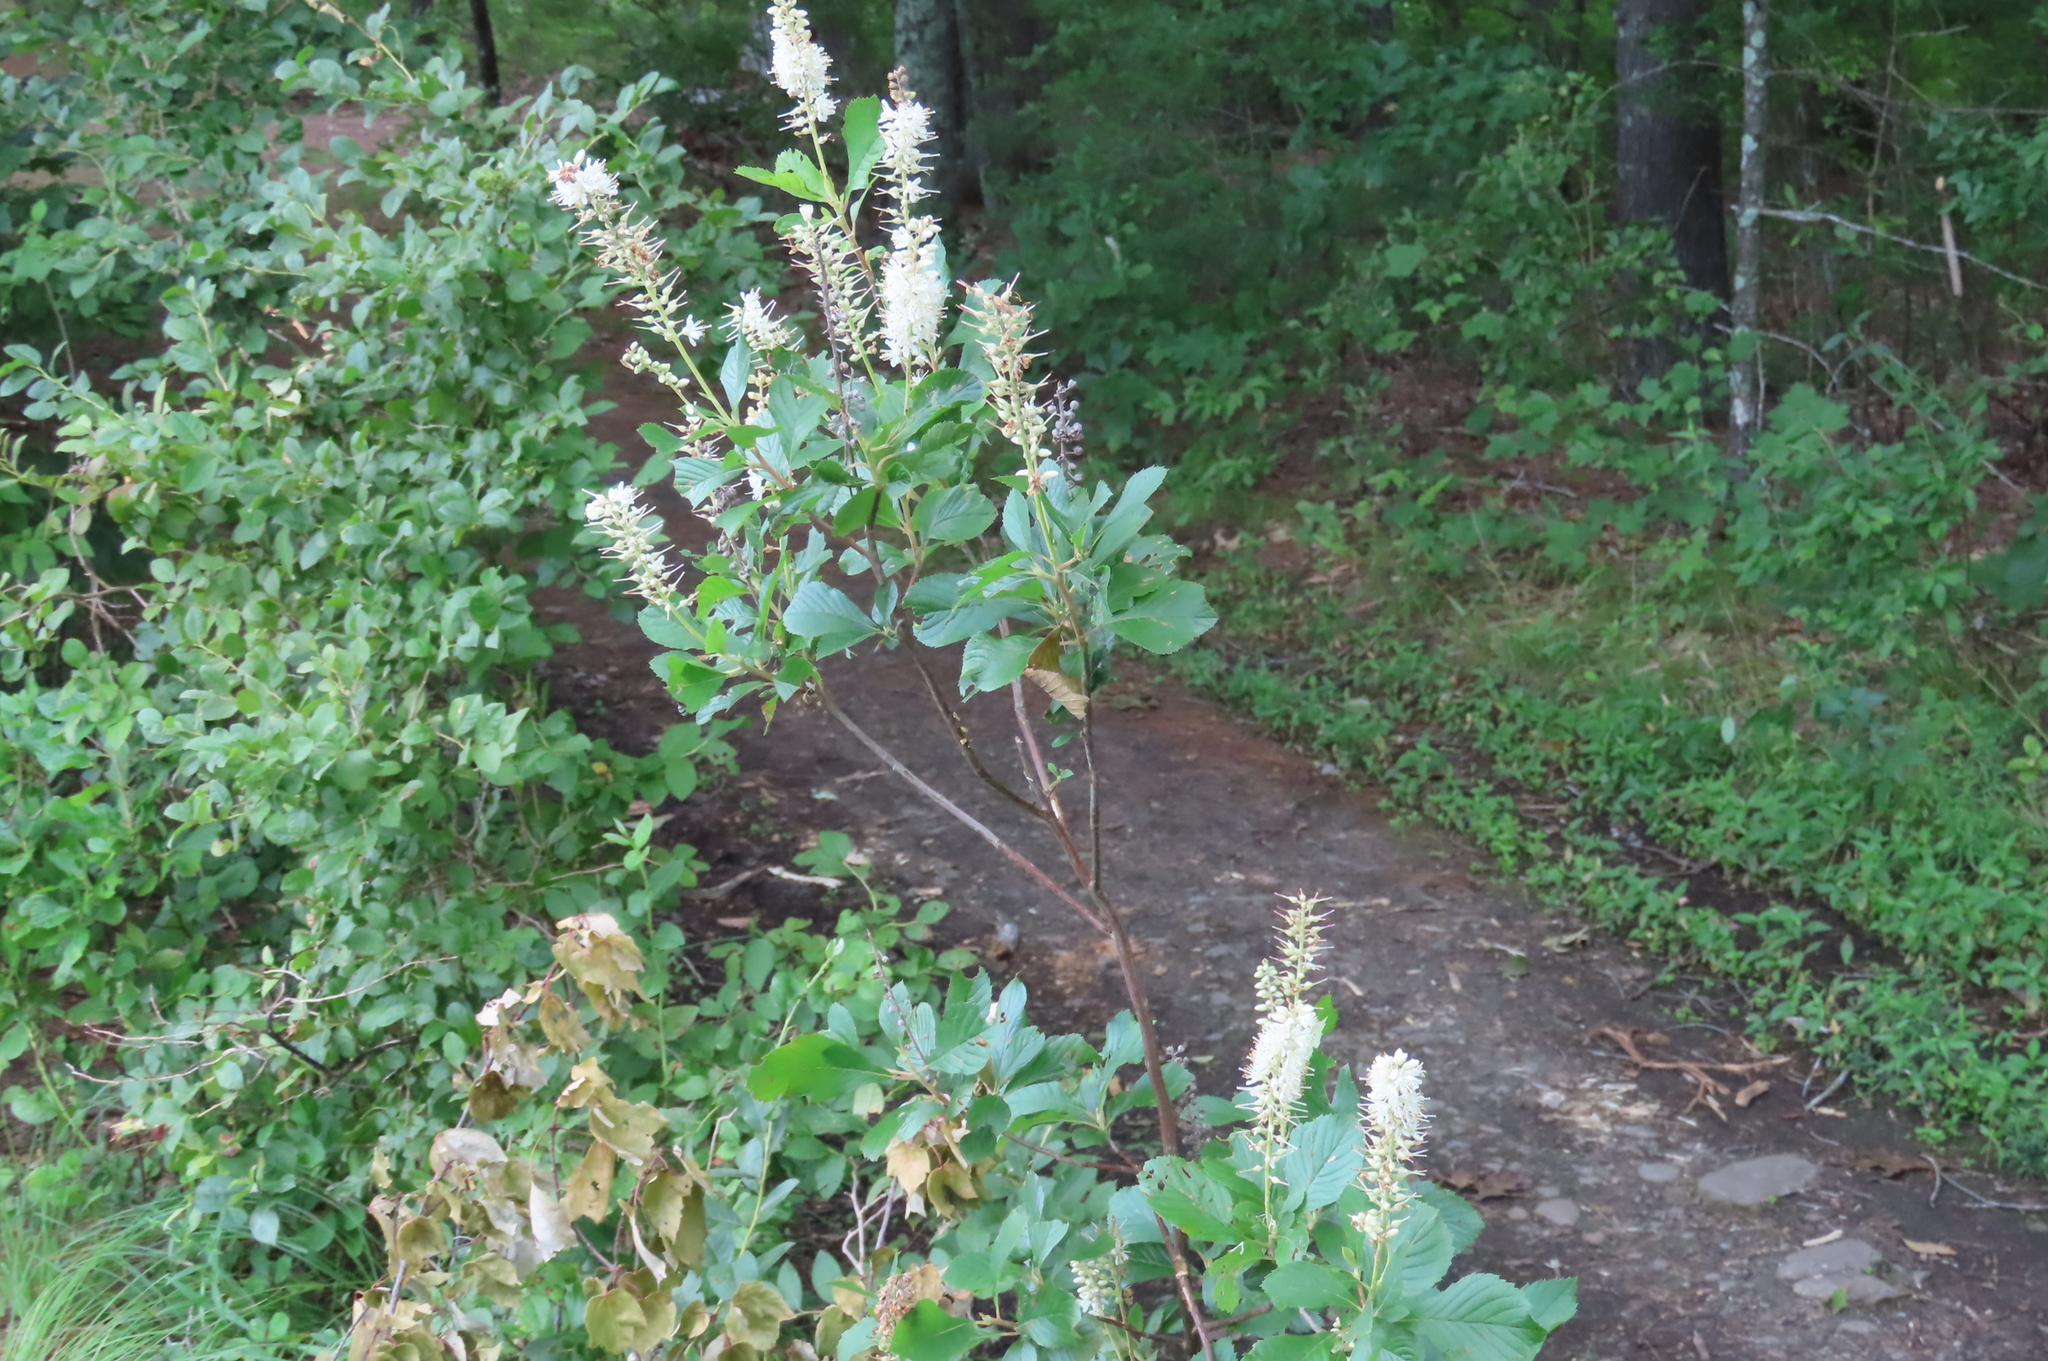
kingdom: Plantae
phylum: Tracheophyta
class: Magnoliopsida
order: Ericales
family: Clethraceae
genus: Clethra
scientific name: Clethra alnifolia
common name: Sweet pepperbush
